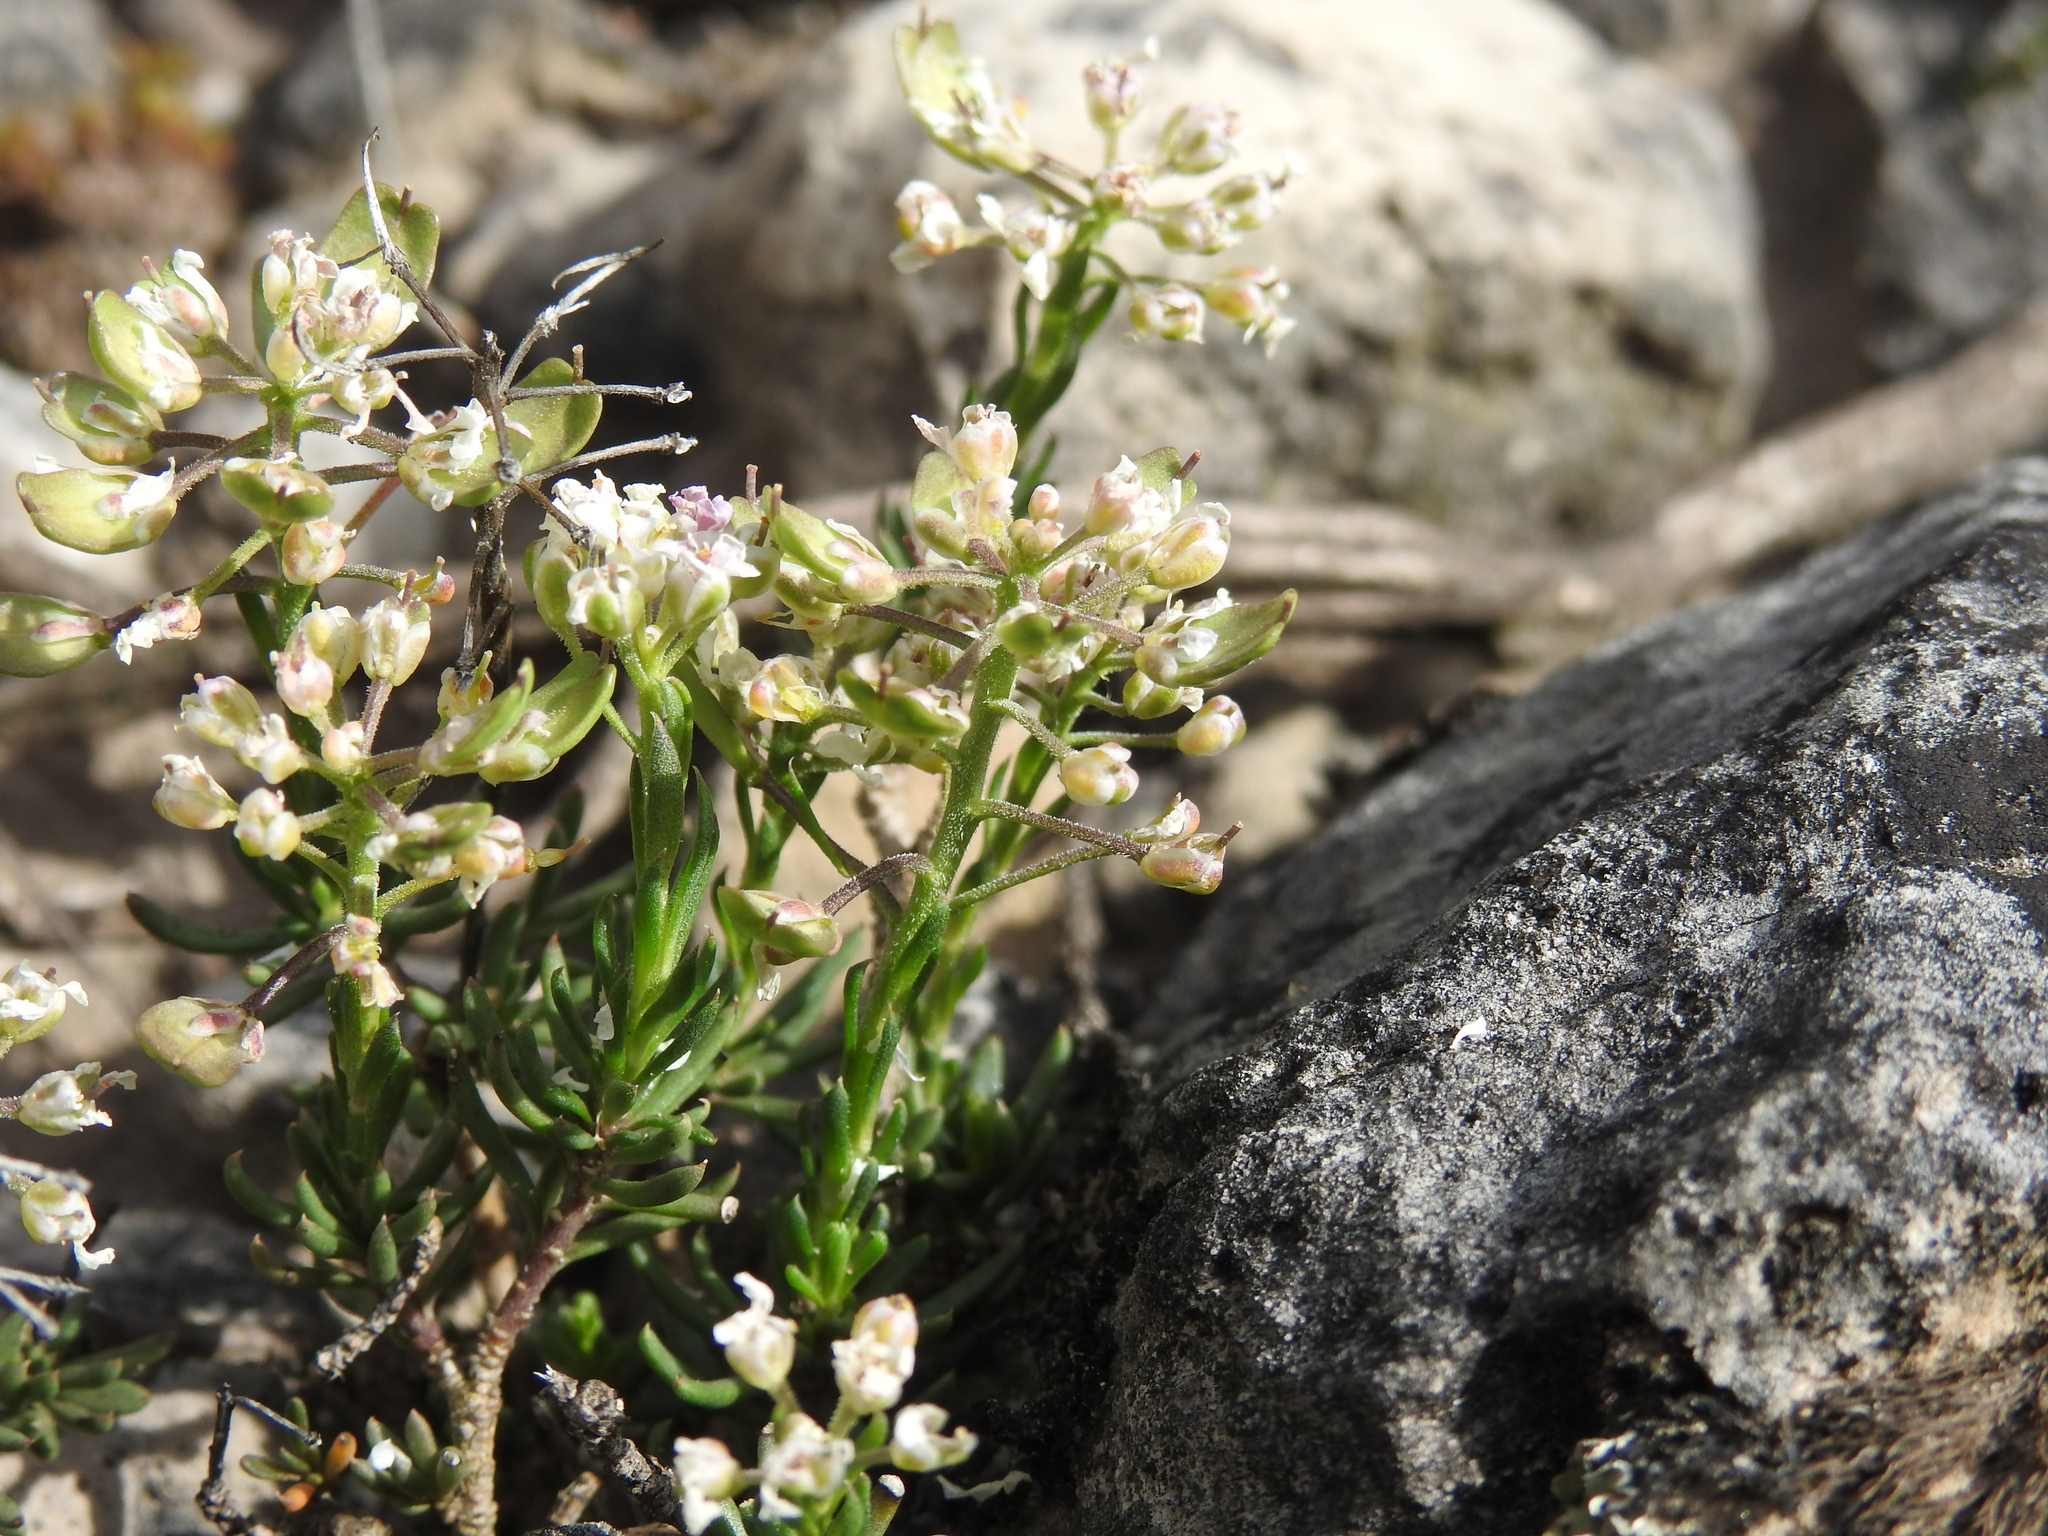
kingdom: Plantae
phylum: Tracheophyta
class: Magnoliopsida
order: Brassicales
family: Brassicaceae
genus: Iberis
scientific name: Iberis saxatilis
